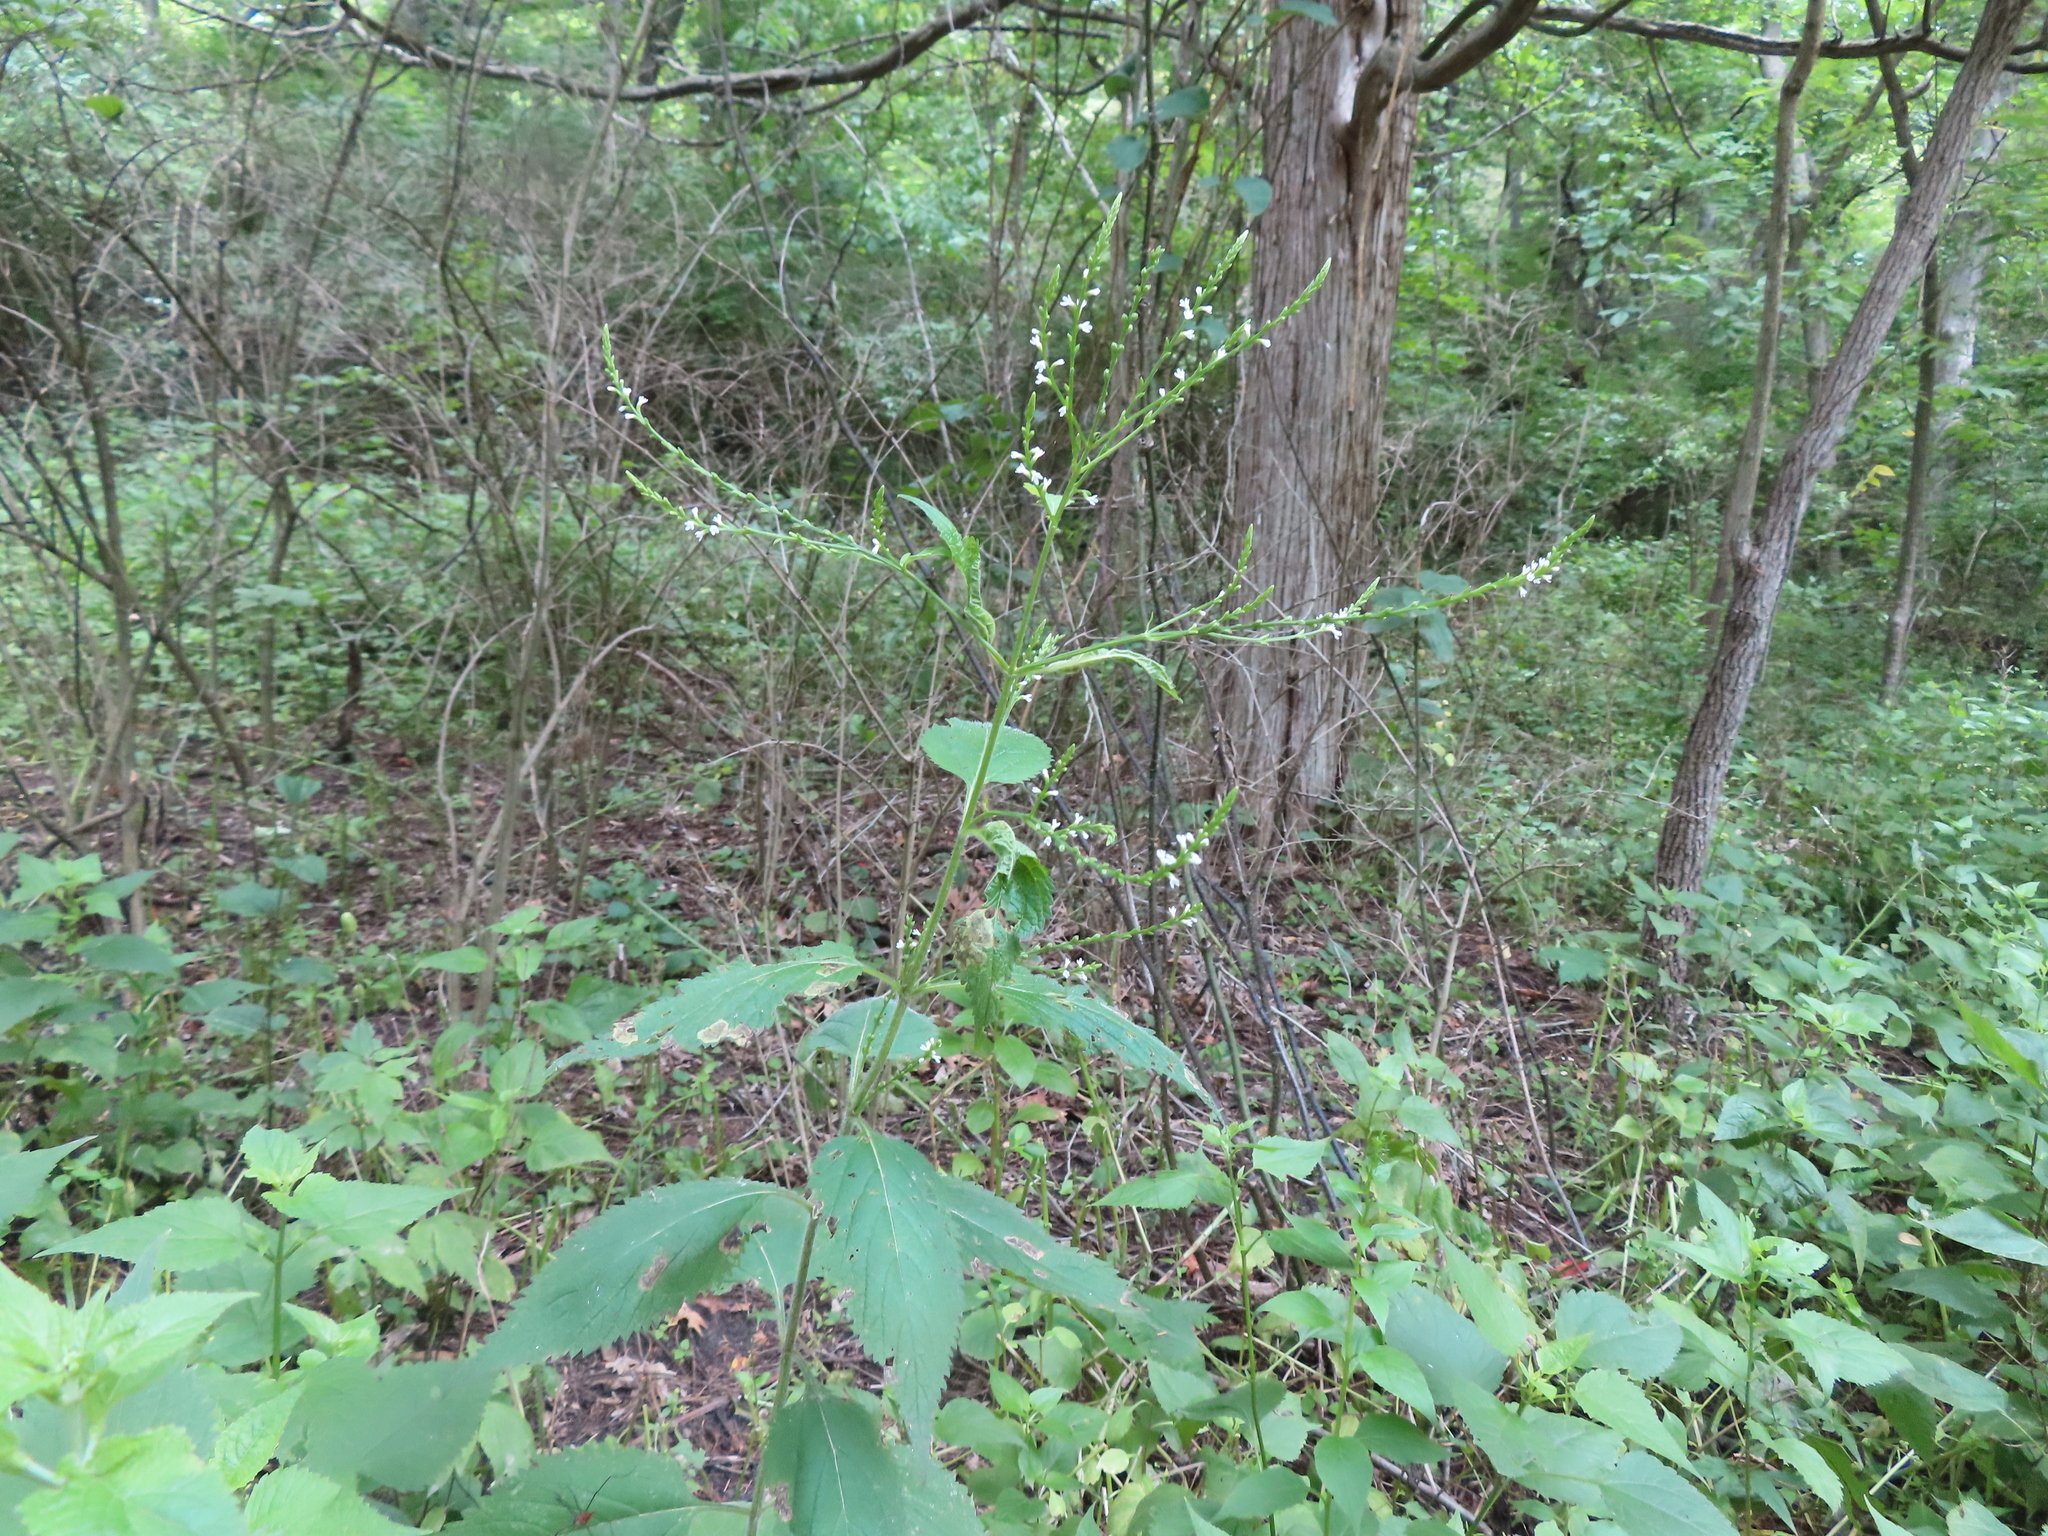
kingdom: Plantae
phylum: Tracheophyta
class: Magnoliopsida
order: Lamiales
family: Verbenaceae
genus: Verbena
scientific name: Verbena urticifolia
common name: Nettle-leaved vervain
